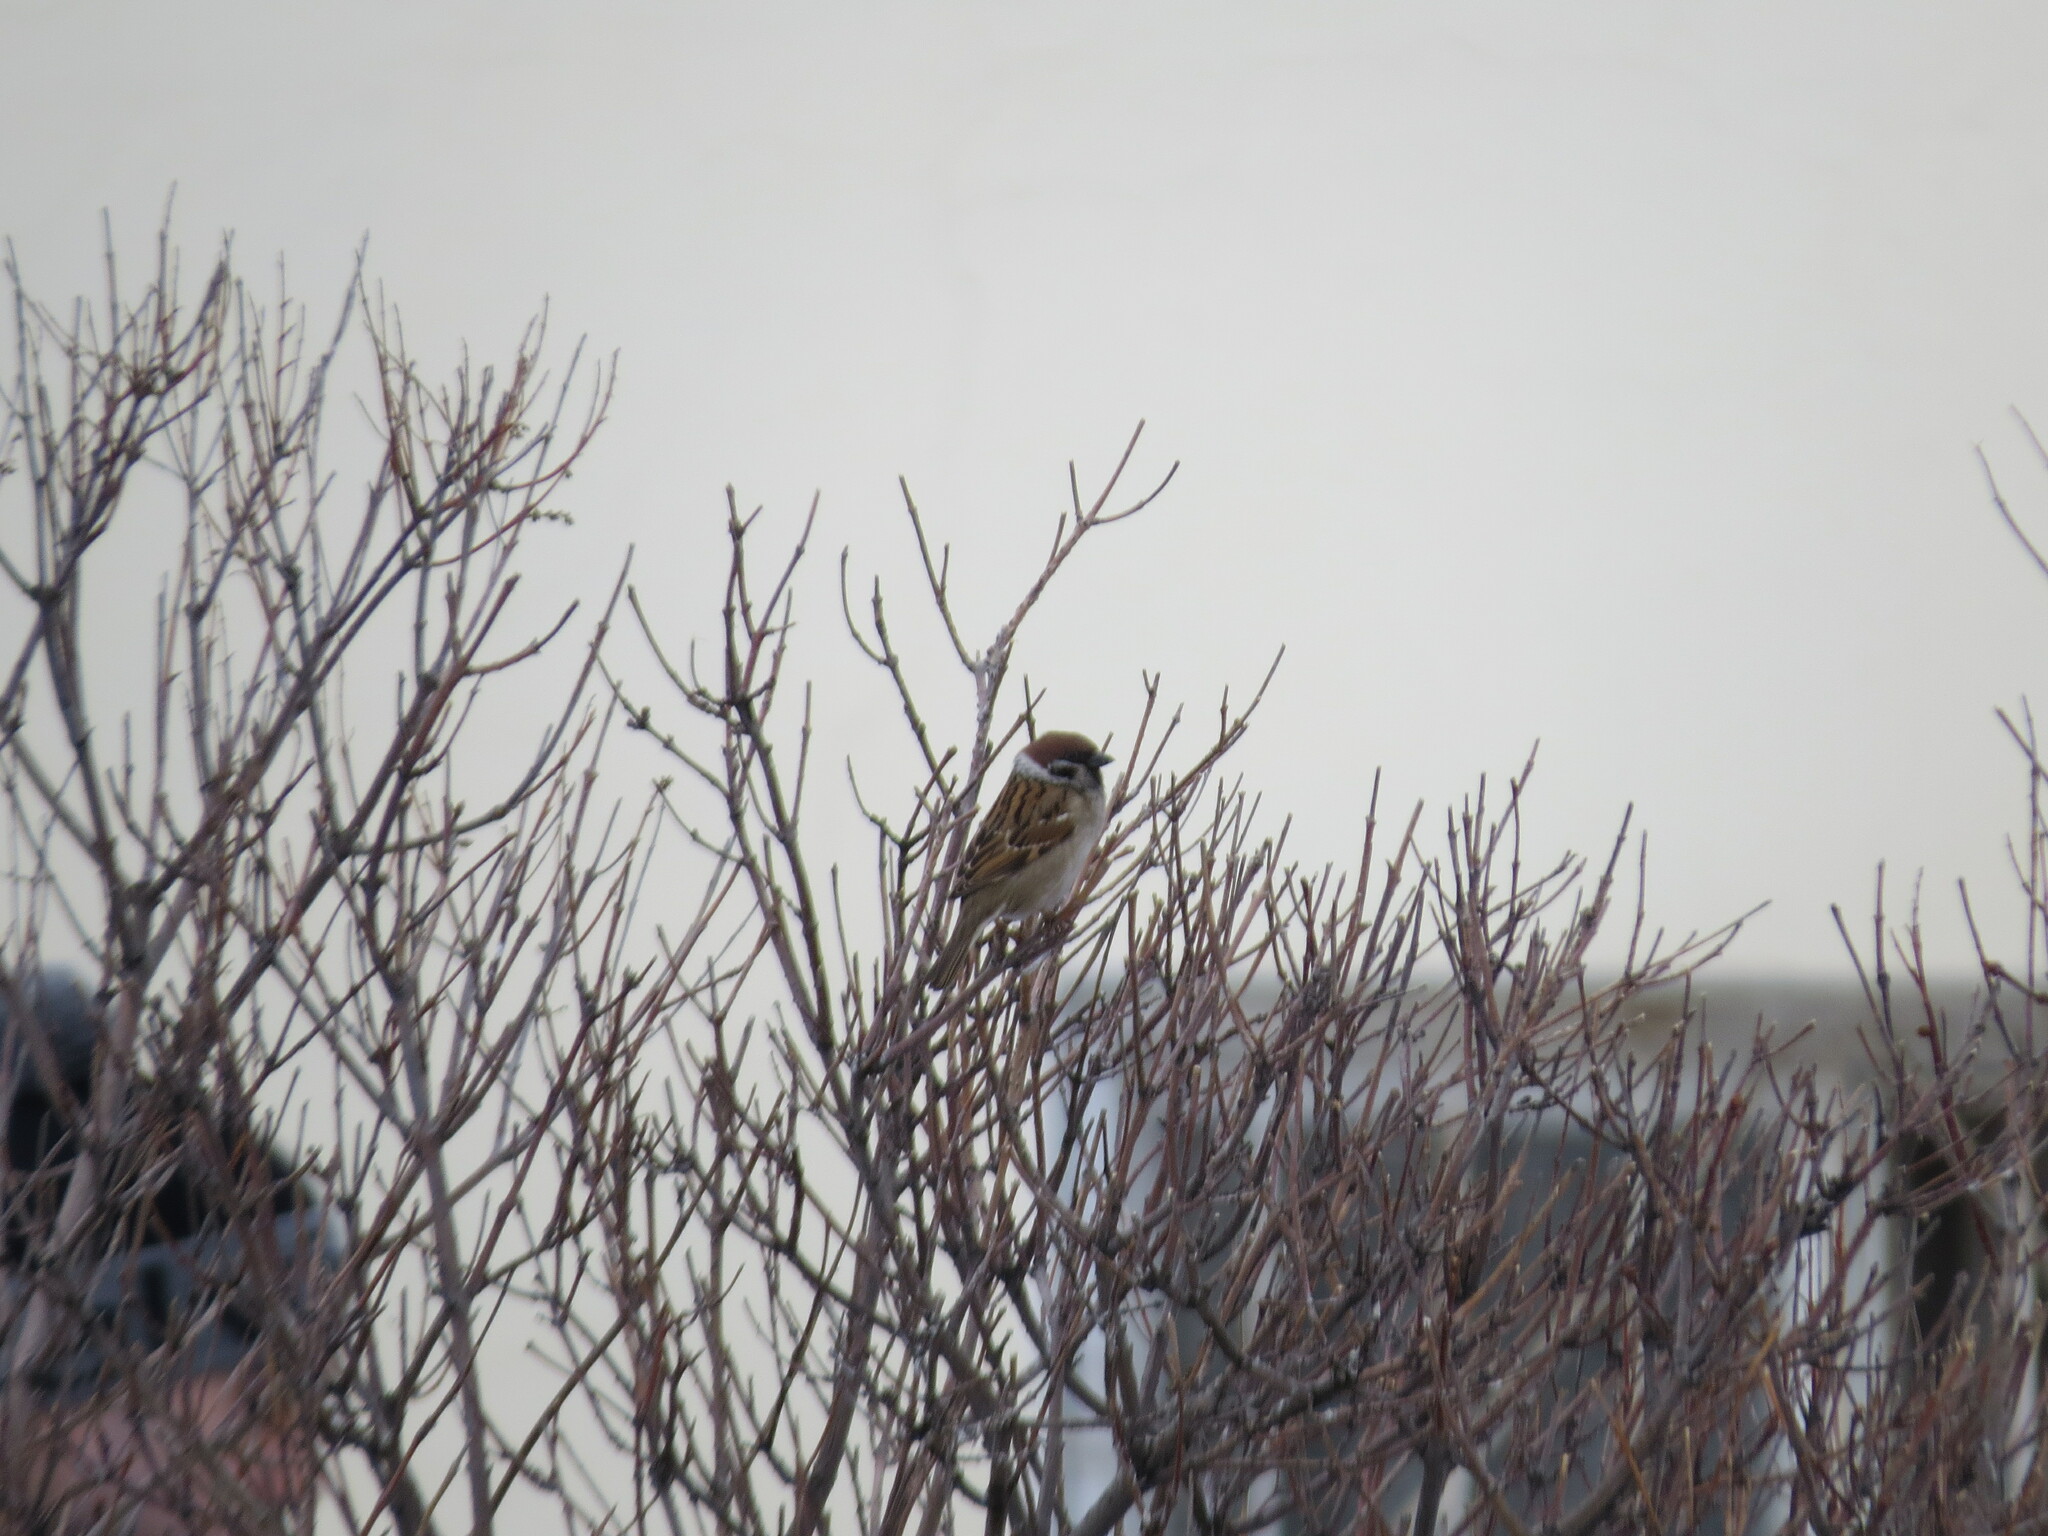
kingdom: Animalia
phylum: Chordata
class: Aves
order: Passeriformes
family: Passeridae
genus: Passer
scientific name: Passer montanus
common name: Eurasian tree sparrow
